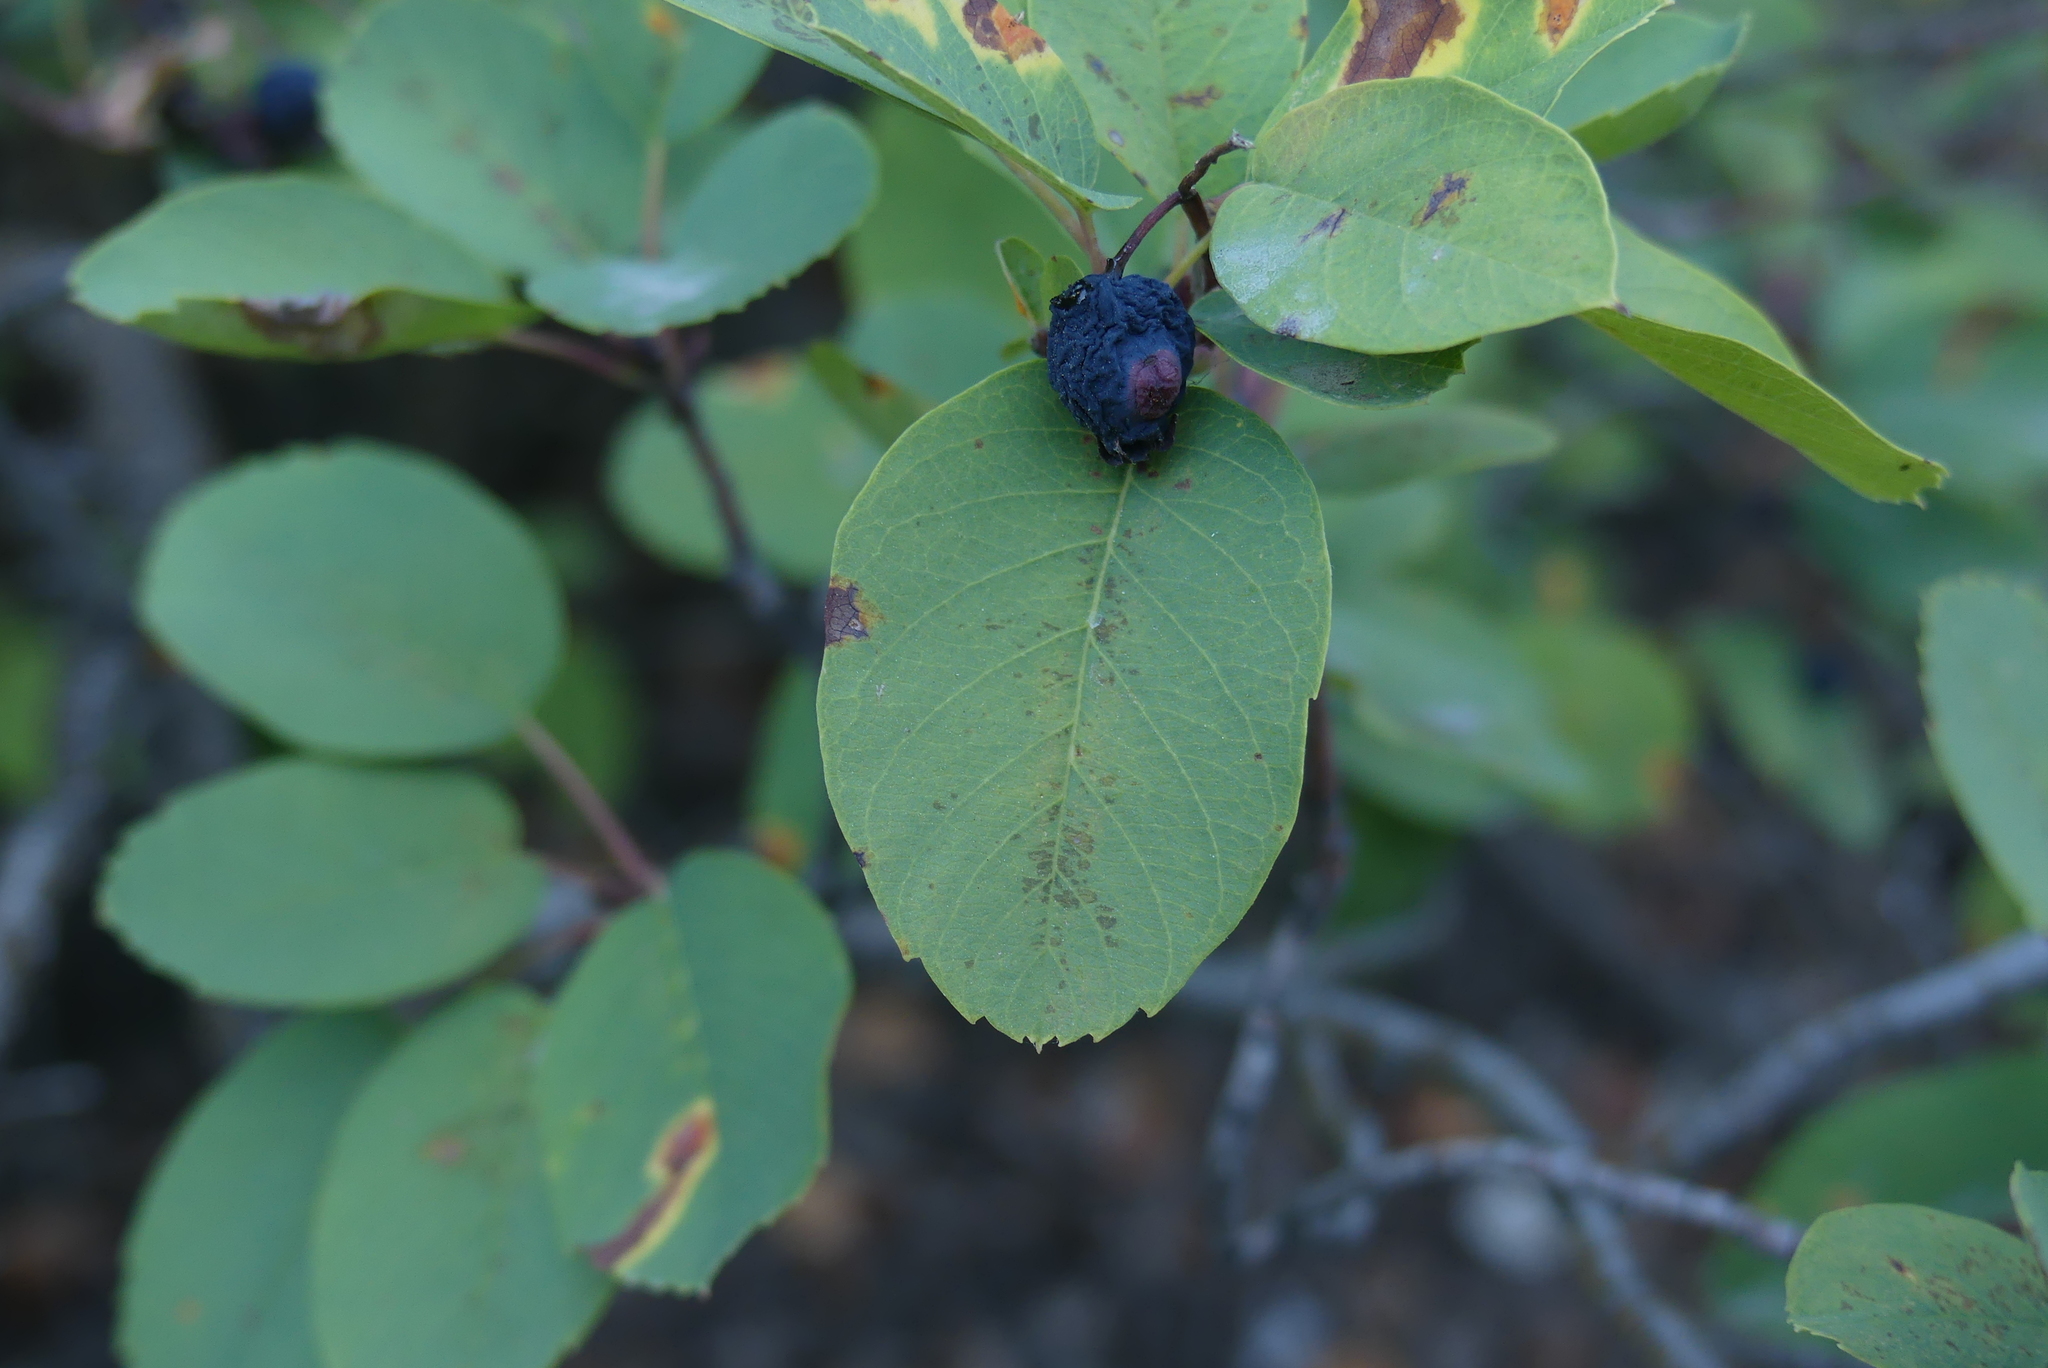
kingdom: Plantae
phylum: Tracheophyta
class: Magnoliopsida
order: Rosales
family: Rosaceae
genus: Amelanchier
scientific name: Amelanchier alnifolia
